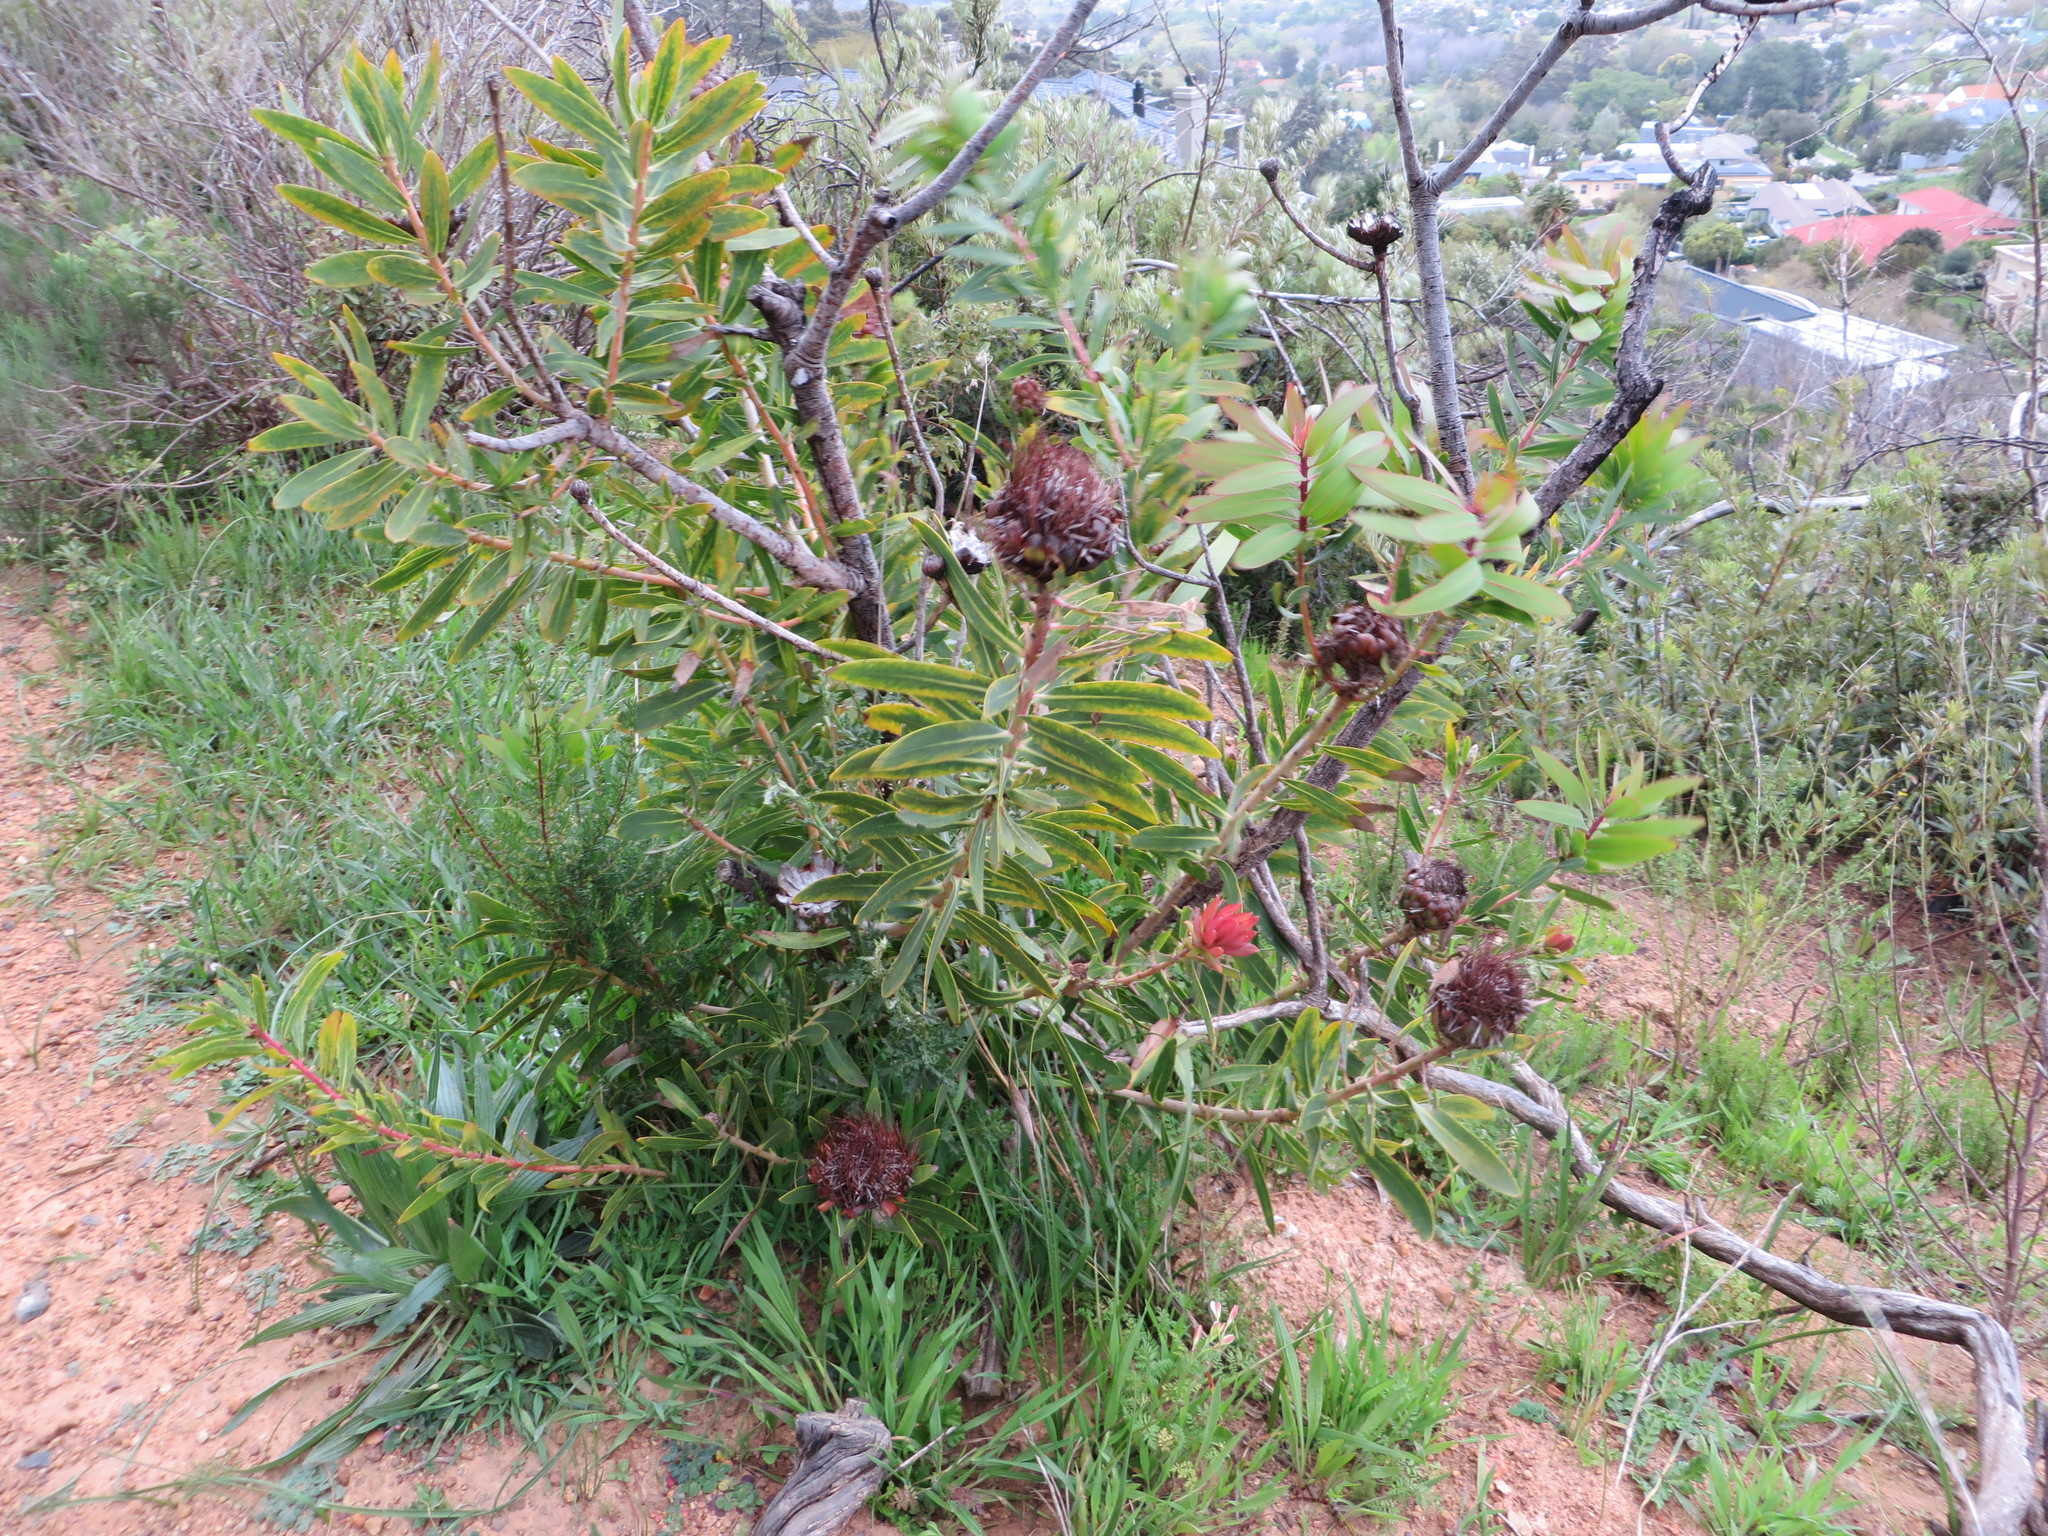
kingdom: Plantae
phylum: Tracheophyta
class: Magnoliopsida
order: Proteales
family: Proteaceae
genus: Protea
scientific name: Protea nitida
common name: Tree protea
